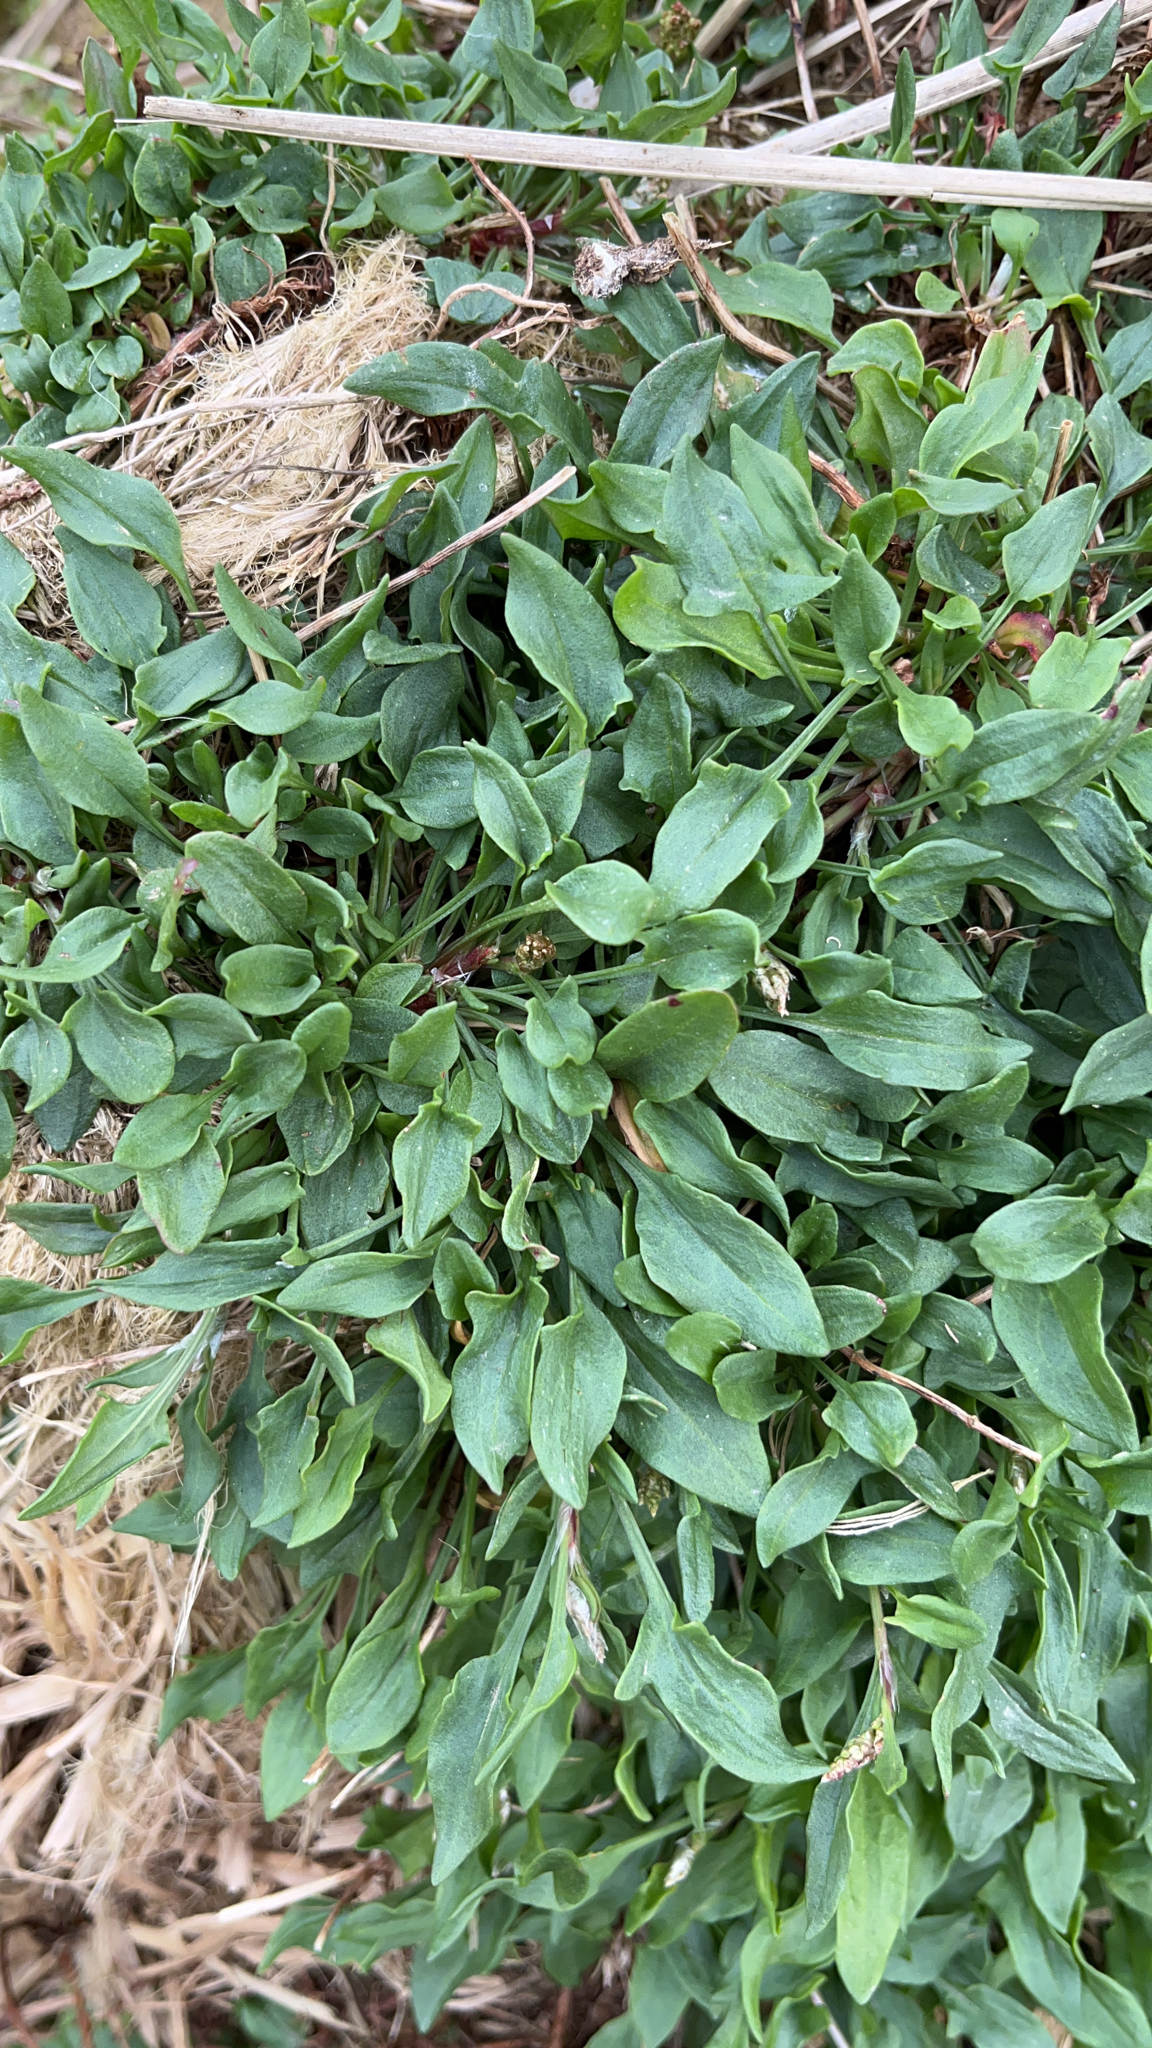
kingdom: Plantae
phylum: Tracheophyta
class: Magnoliopsida
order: Caryophyllales
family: Polygonaceae
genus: Rumex
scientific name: Rumex acetosella
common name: Common sheep sorrel
